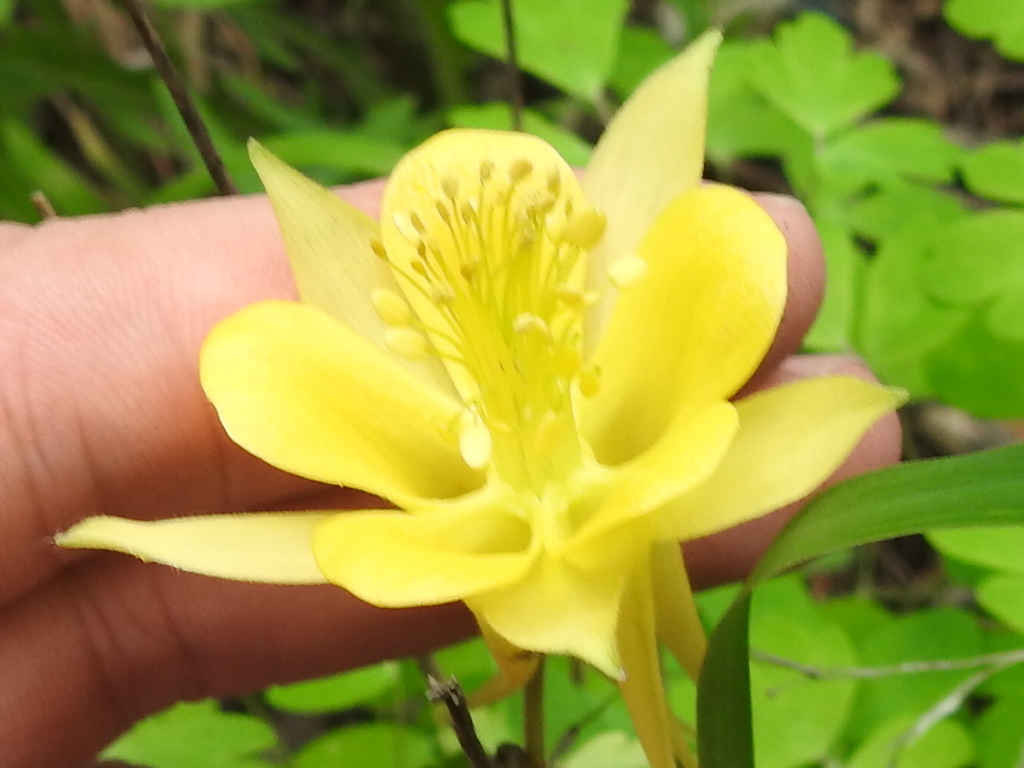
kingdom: Plantae
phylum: Tracheophyta
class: Magnoliopsida
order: Ranunculales
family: Ranunculaceae
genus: Aquilegia
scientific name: Aquilegia chrysantha
